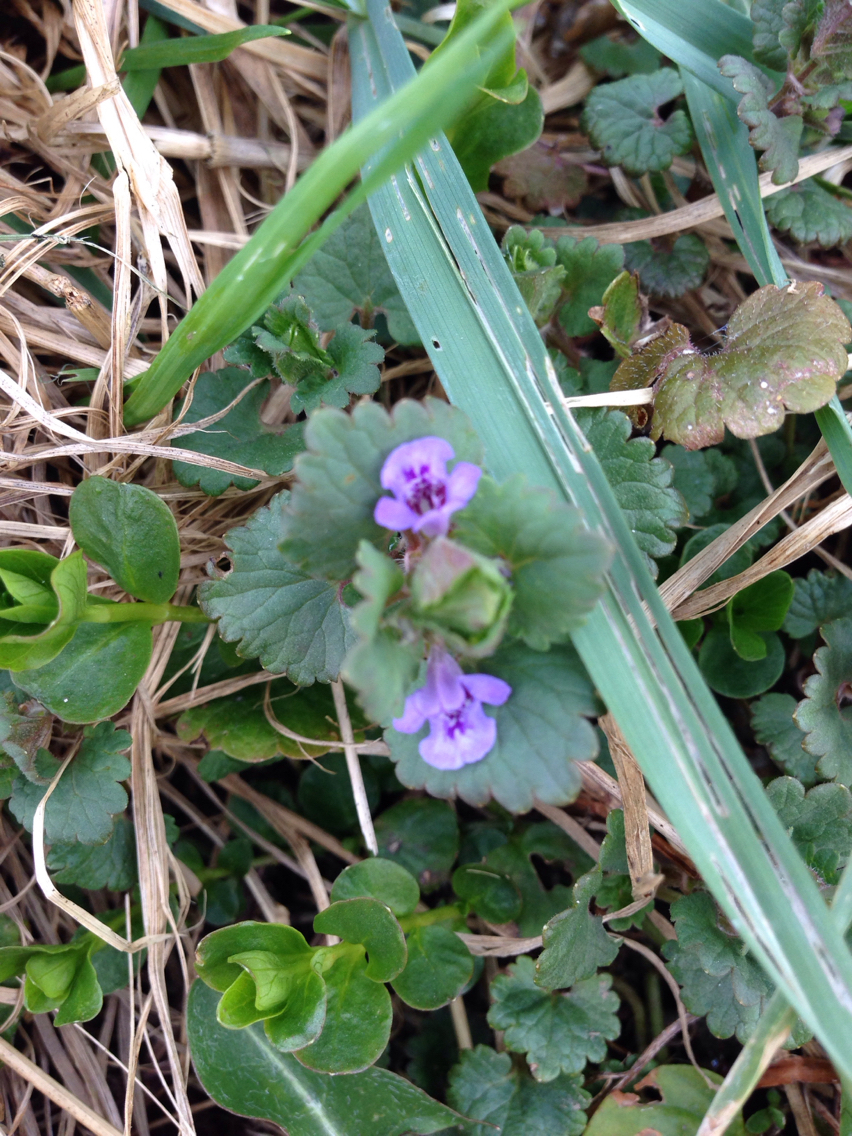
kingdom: Plantae
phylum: Tracheophyta
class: Magnoliopsida
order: Lamiales
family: Lamiaceae
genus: Glechoma
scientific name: Glechoma hederacea
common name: Ground ivy
